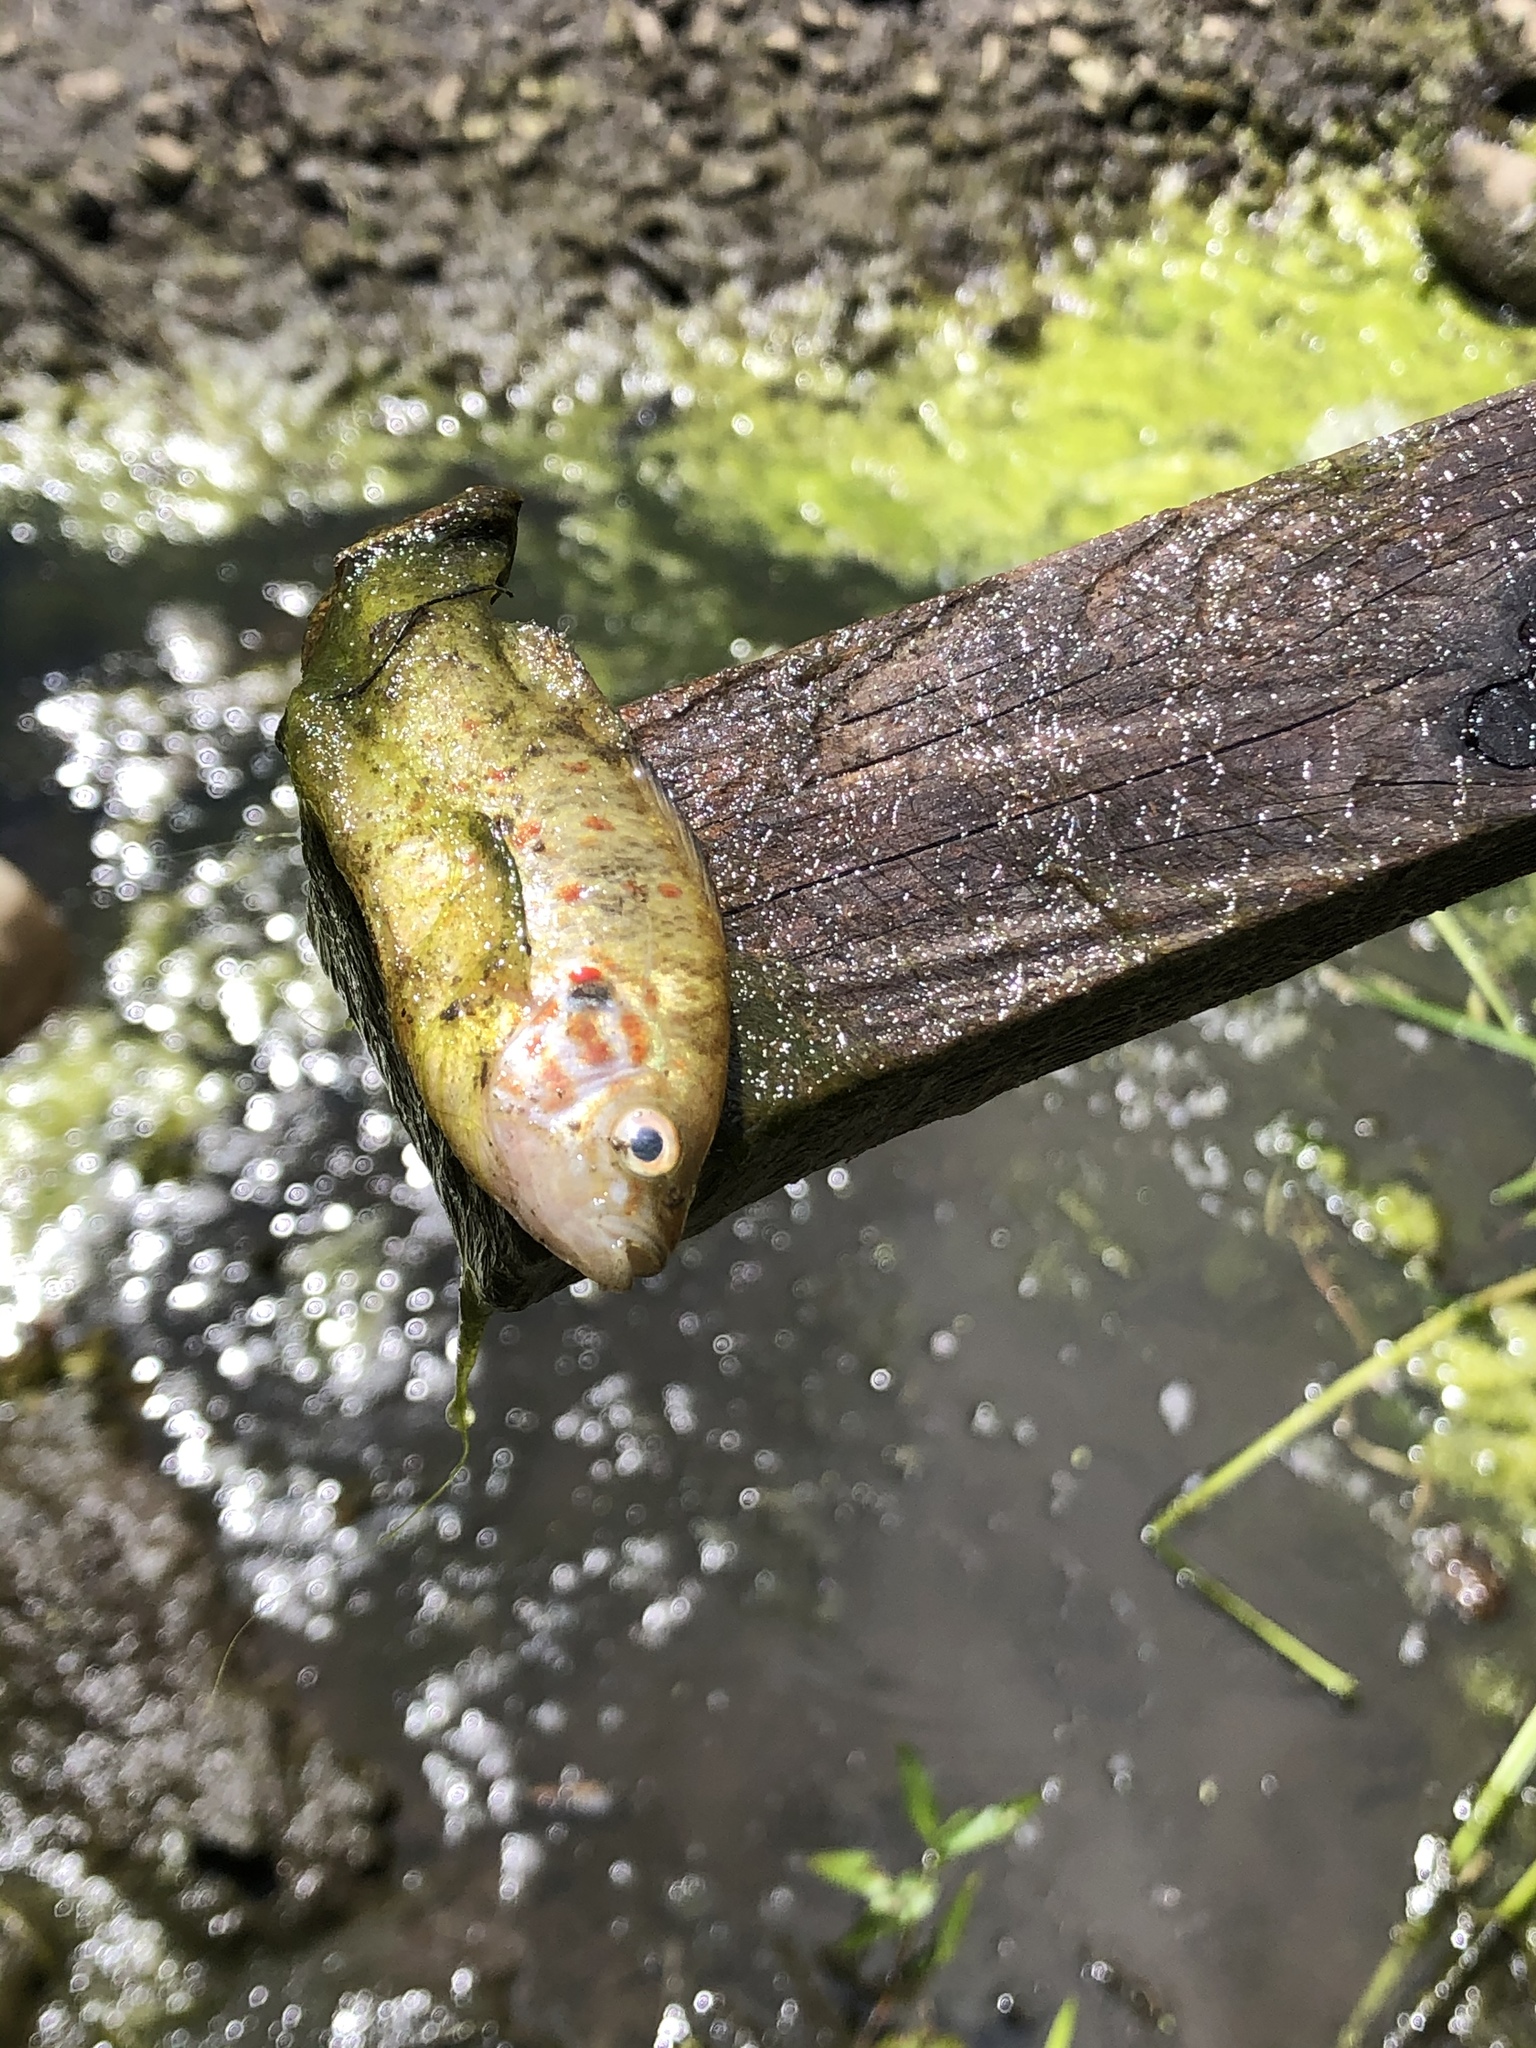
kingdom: Animalia
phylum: Chordata
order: Perciformes
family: Centrarchidae
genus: Lepomis
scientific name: Lepomis gibbosus
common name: Pumpkinseed
